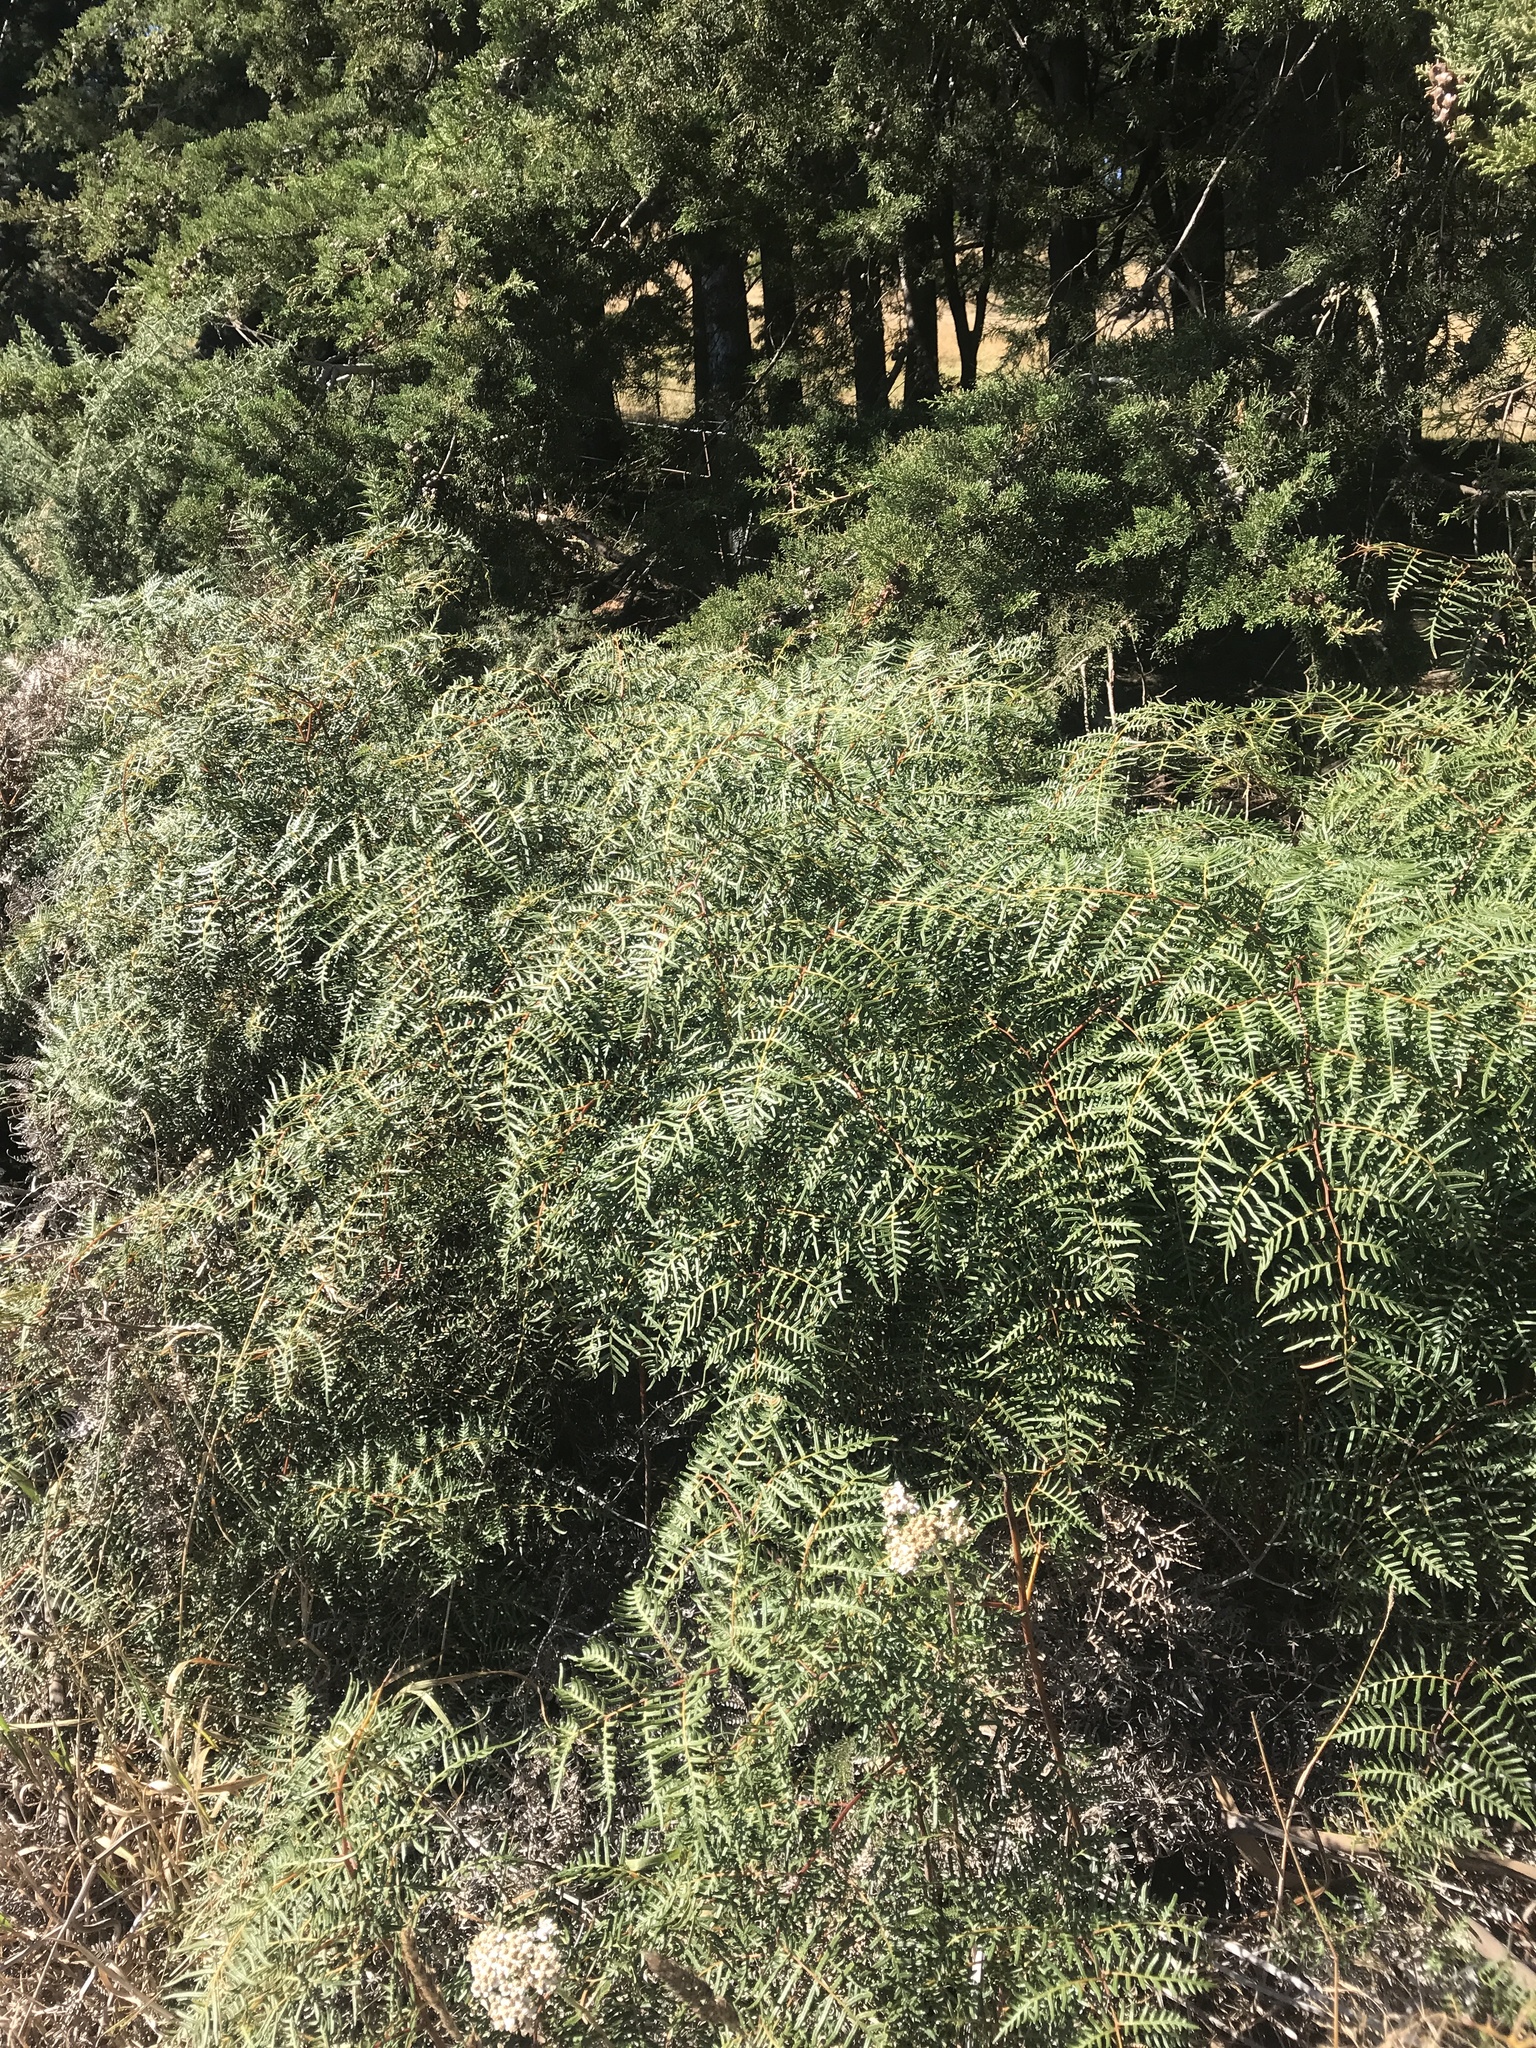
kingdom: Plantae
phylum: Tracheophyta
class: Polypodiopsida
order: Polypodiales
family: Dennstaedtiaceae
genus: Pteridium
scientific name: Pteridium esculentum
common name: Bracken fern
